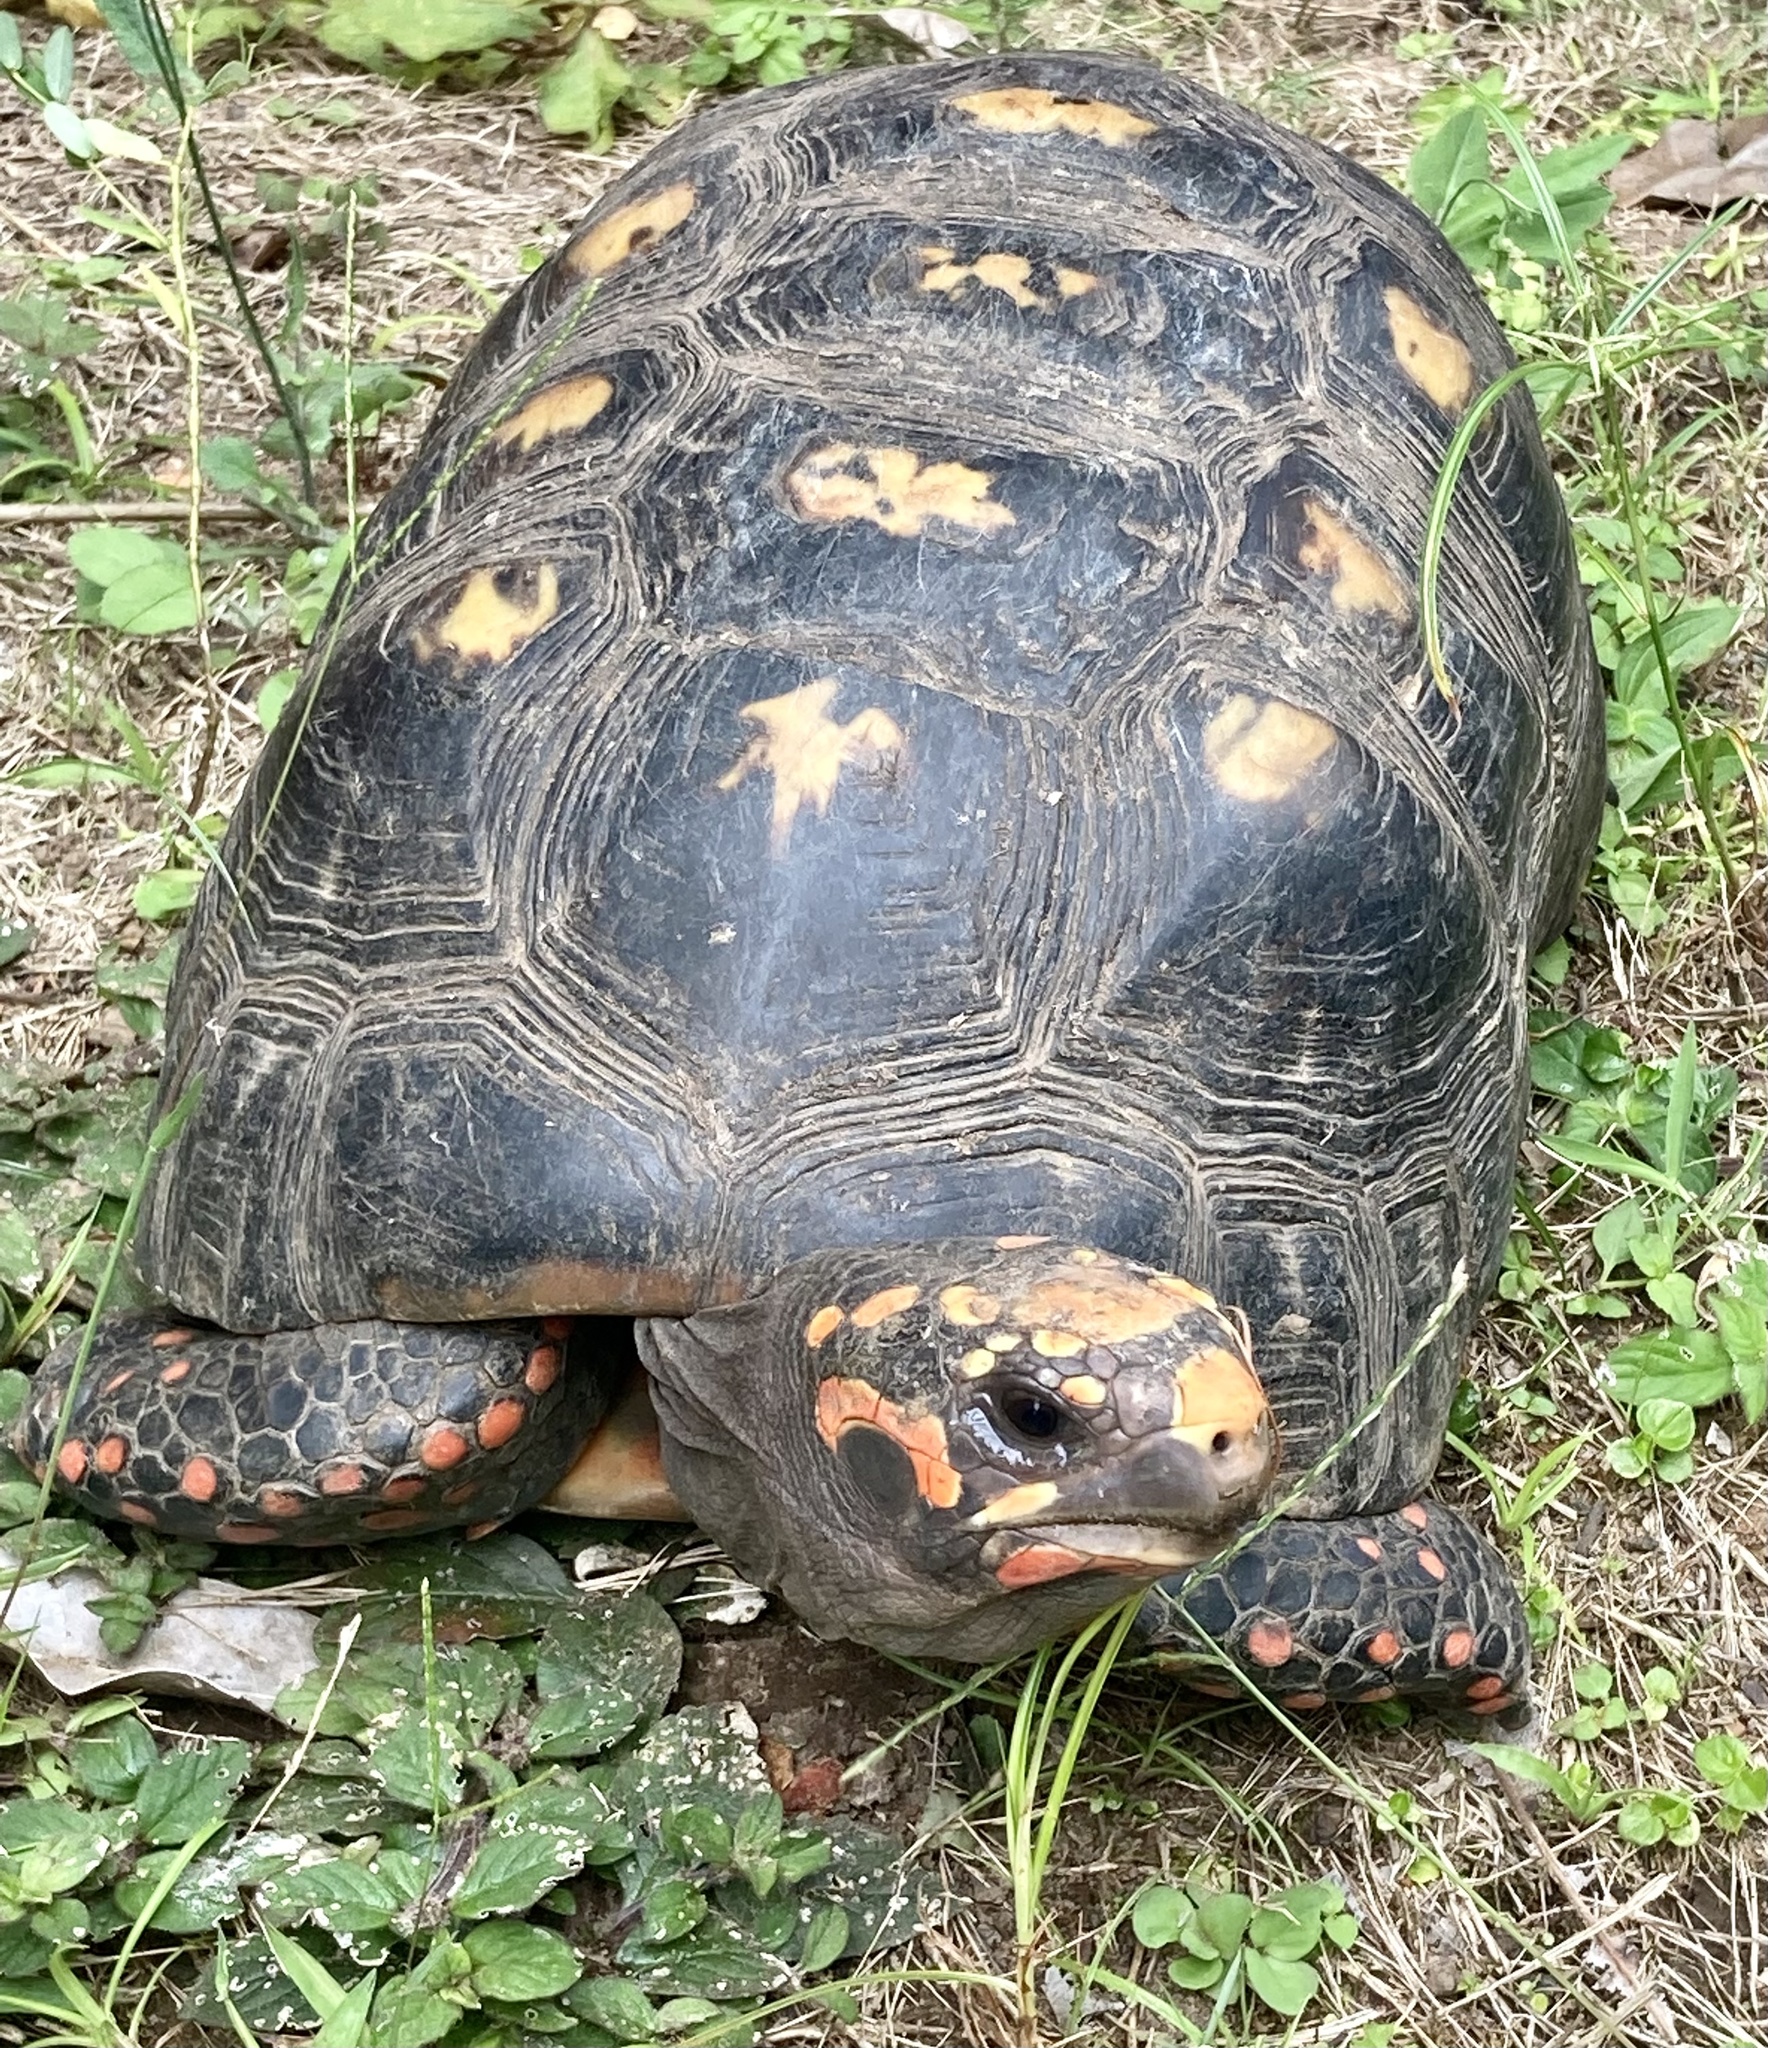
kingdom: Animalia
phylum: Chordata
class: Testudines
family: Testudinidae
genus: Chelonoidis
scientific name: Chelonoidis carbonarius
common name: Red-footed tortoise
